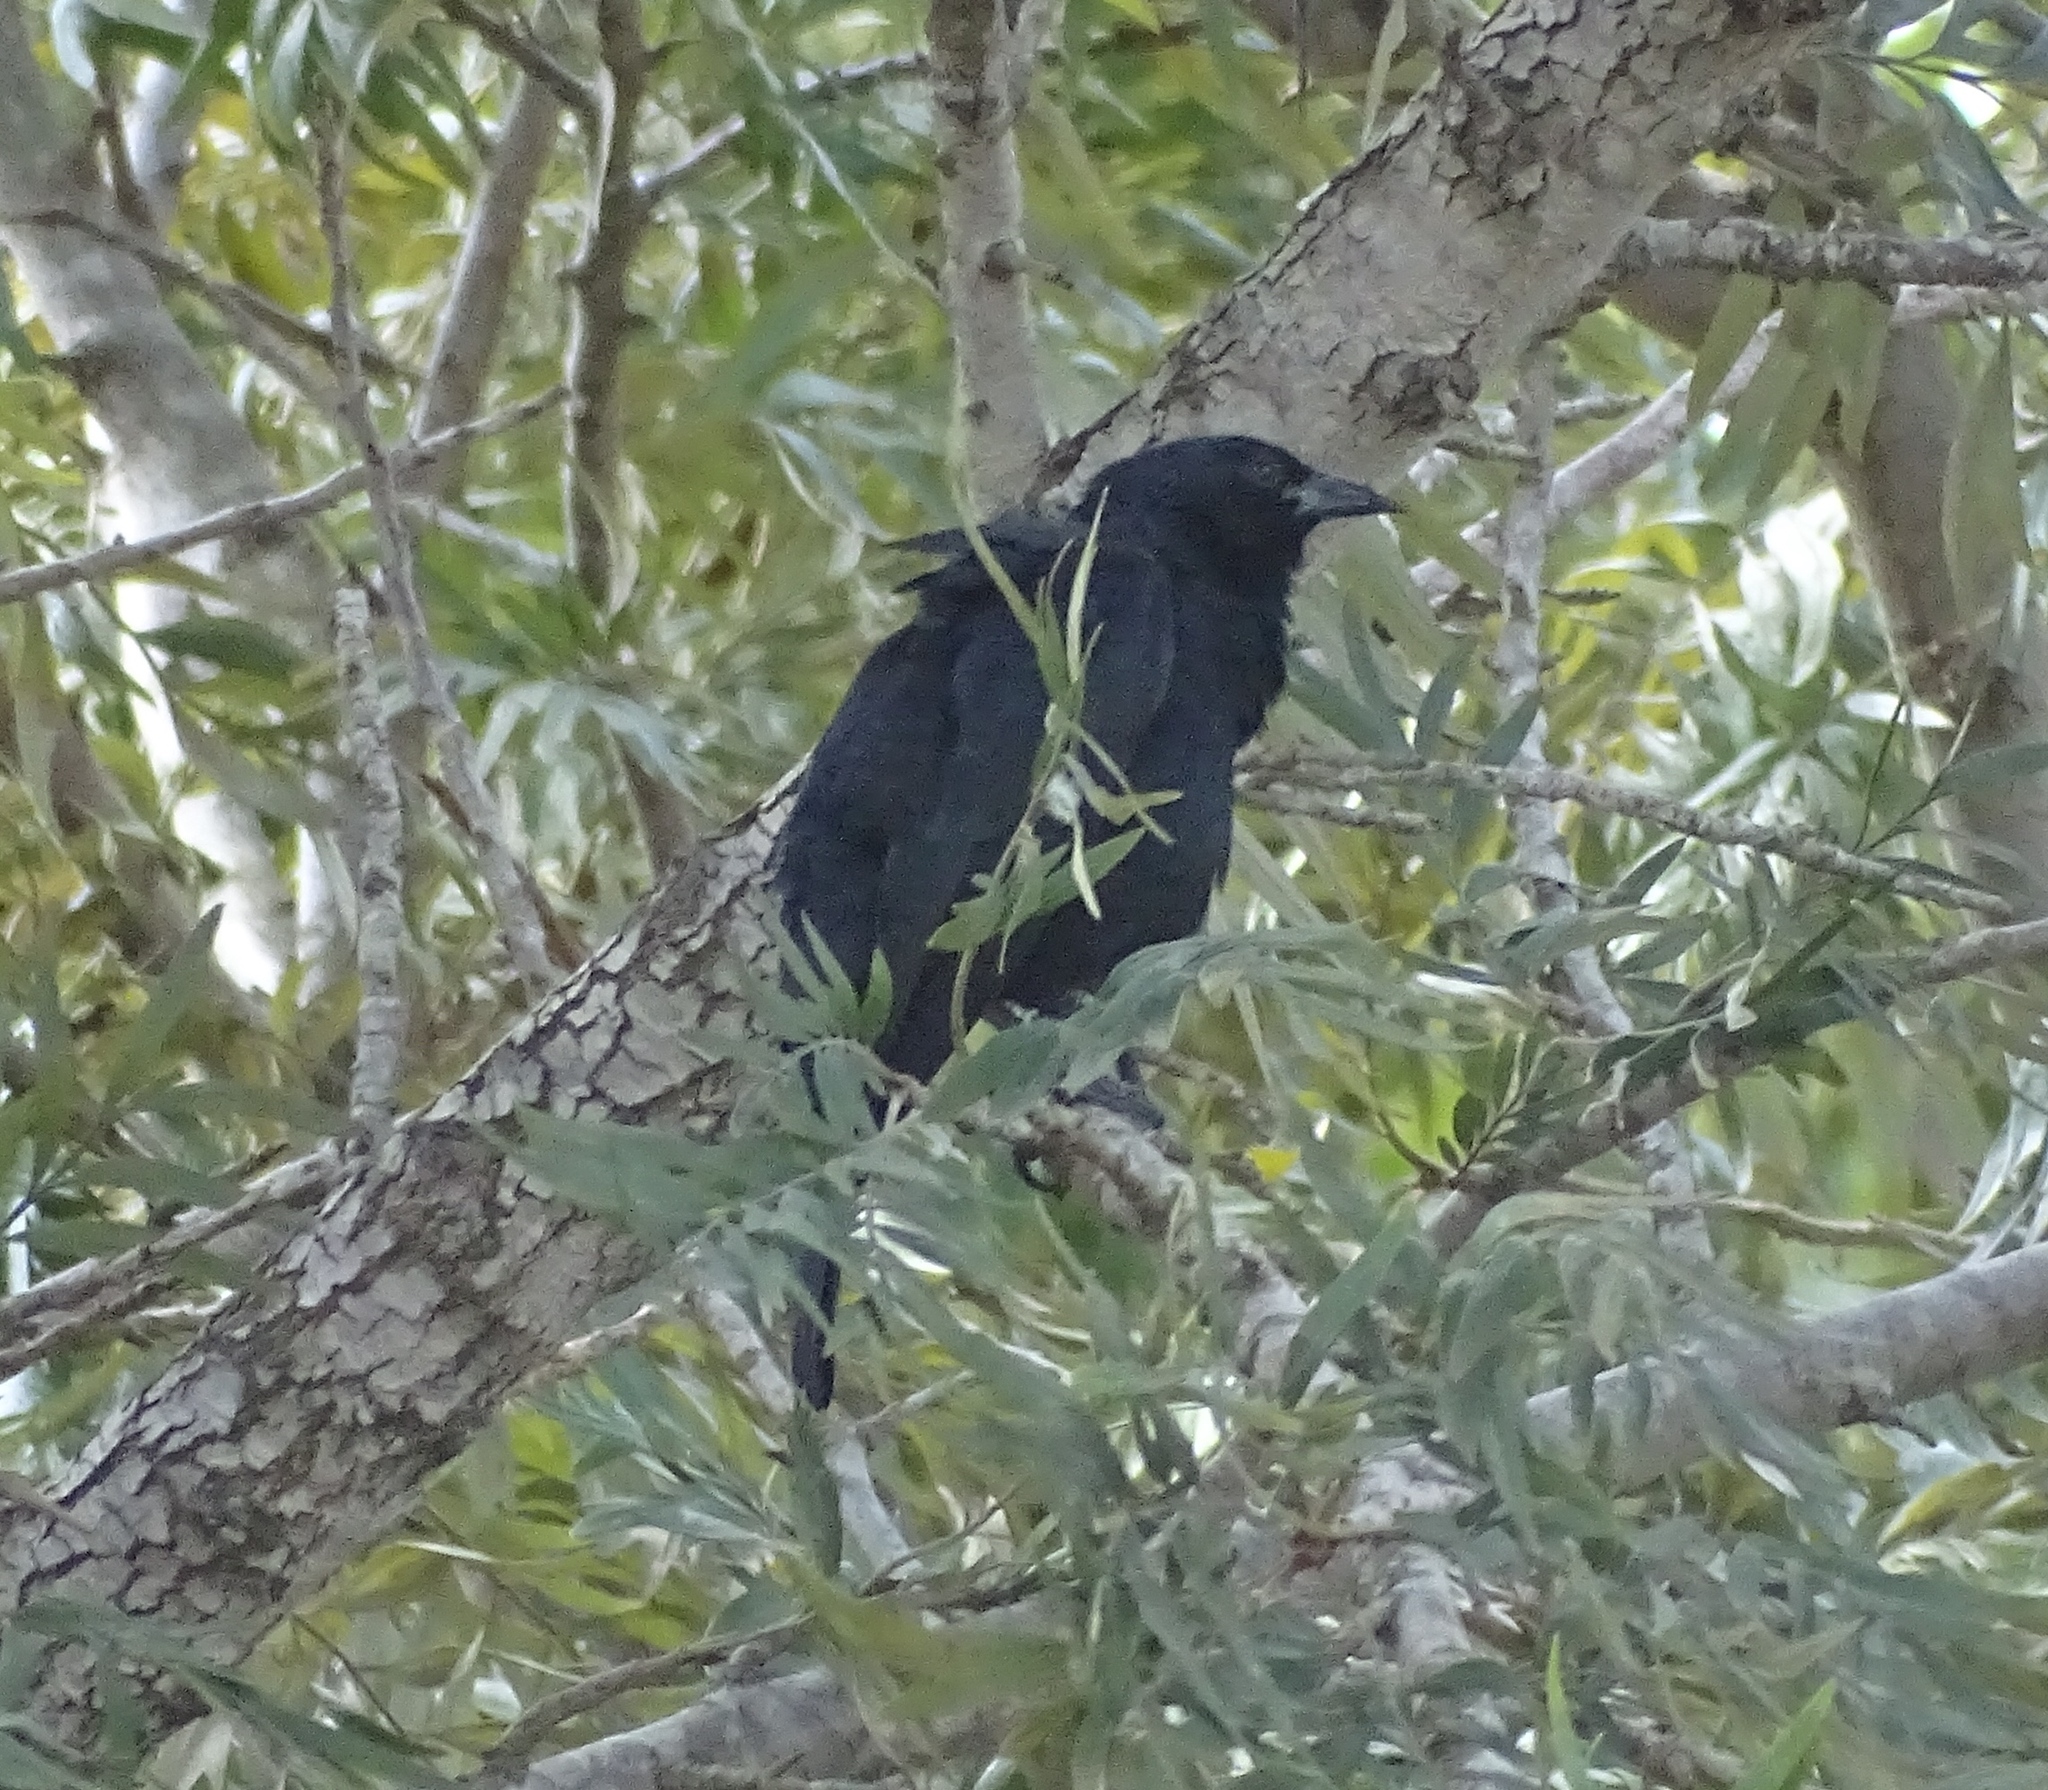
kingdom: Animalia
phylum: Chordata
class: Aves
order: Passeriformes
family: Icteridae
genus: Gnorimopsar
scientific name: Gnorimopsar chopi
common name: Chopi blackbird
